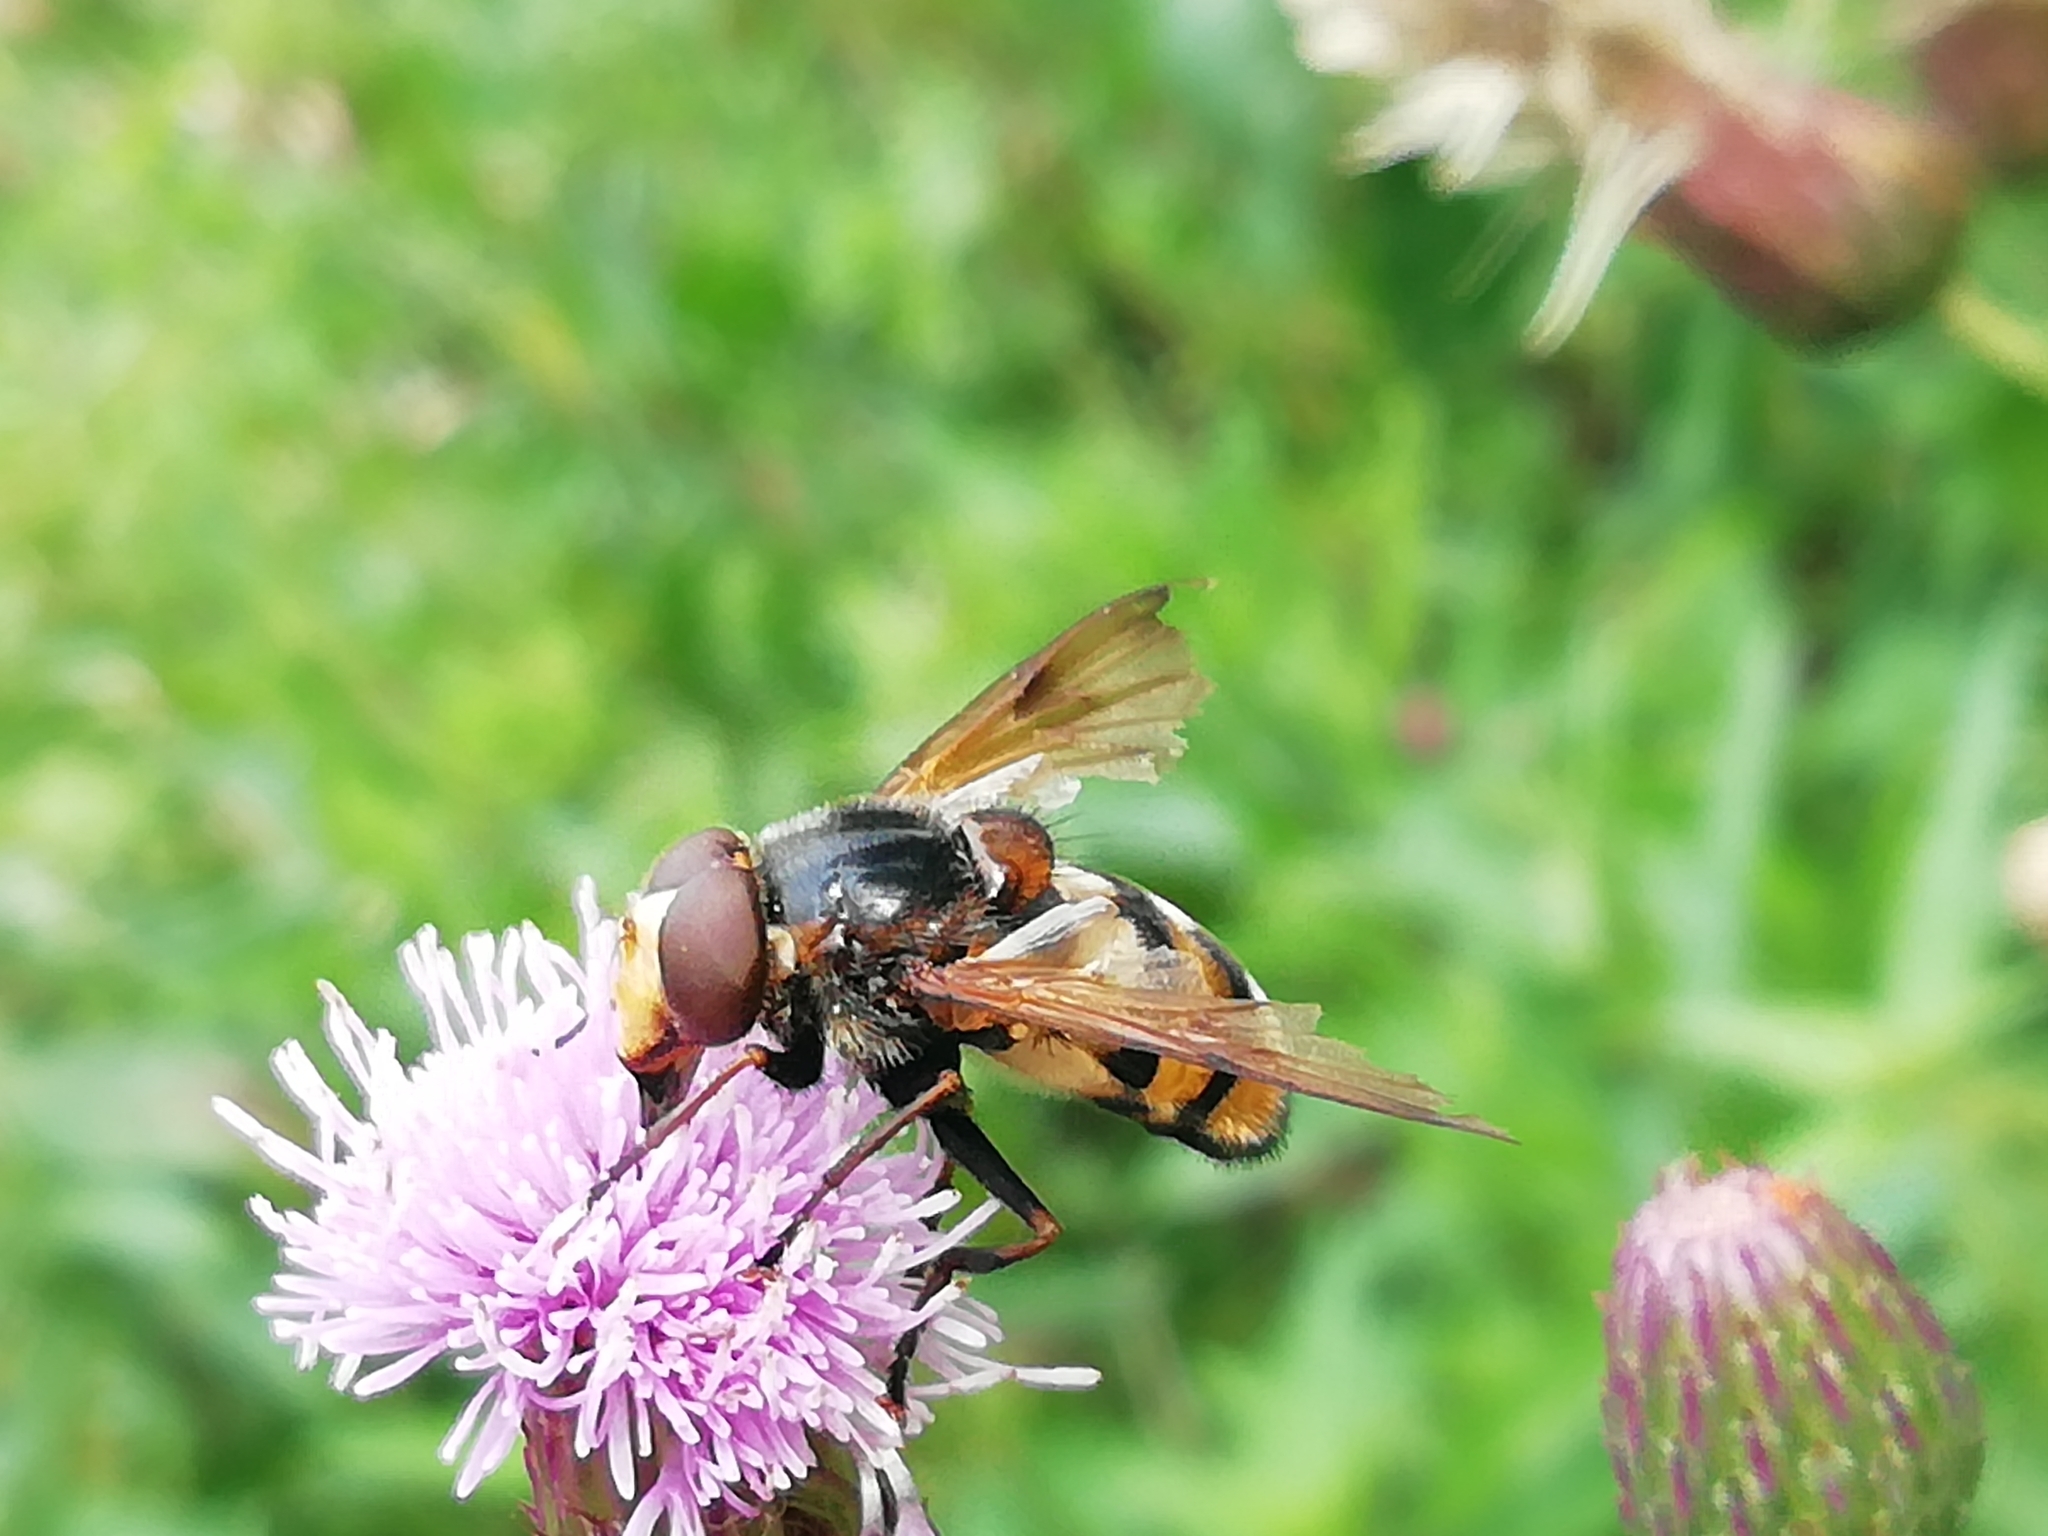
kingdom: Animalia
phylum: Arthropoda
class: Insecta
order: Diptera
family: Syrphidae
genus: Volucella
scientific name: Volucella inanis
